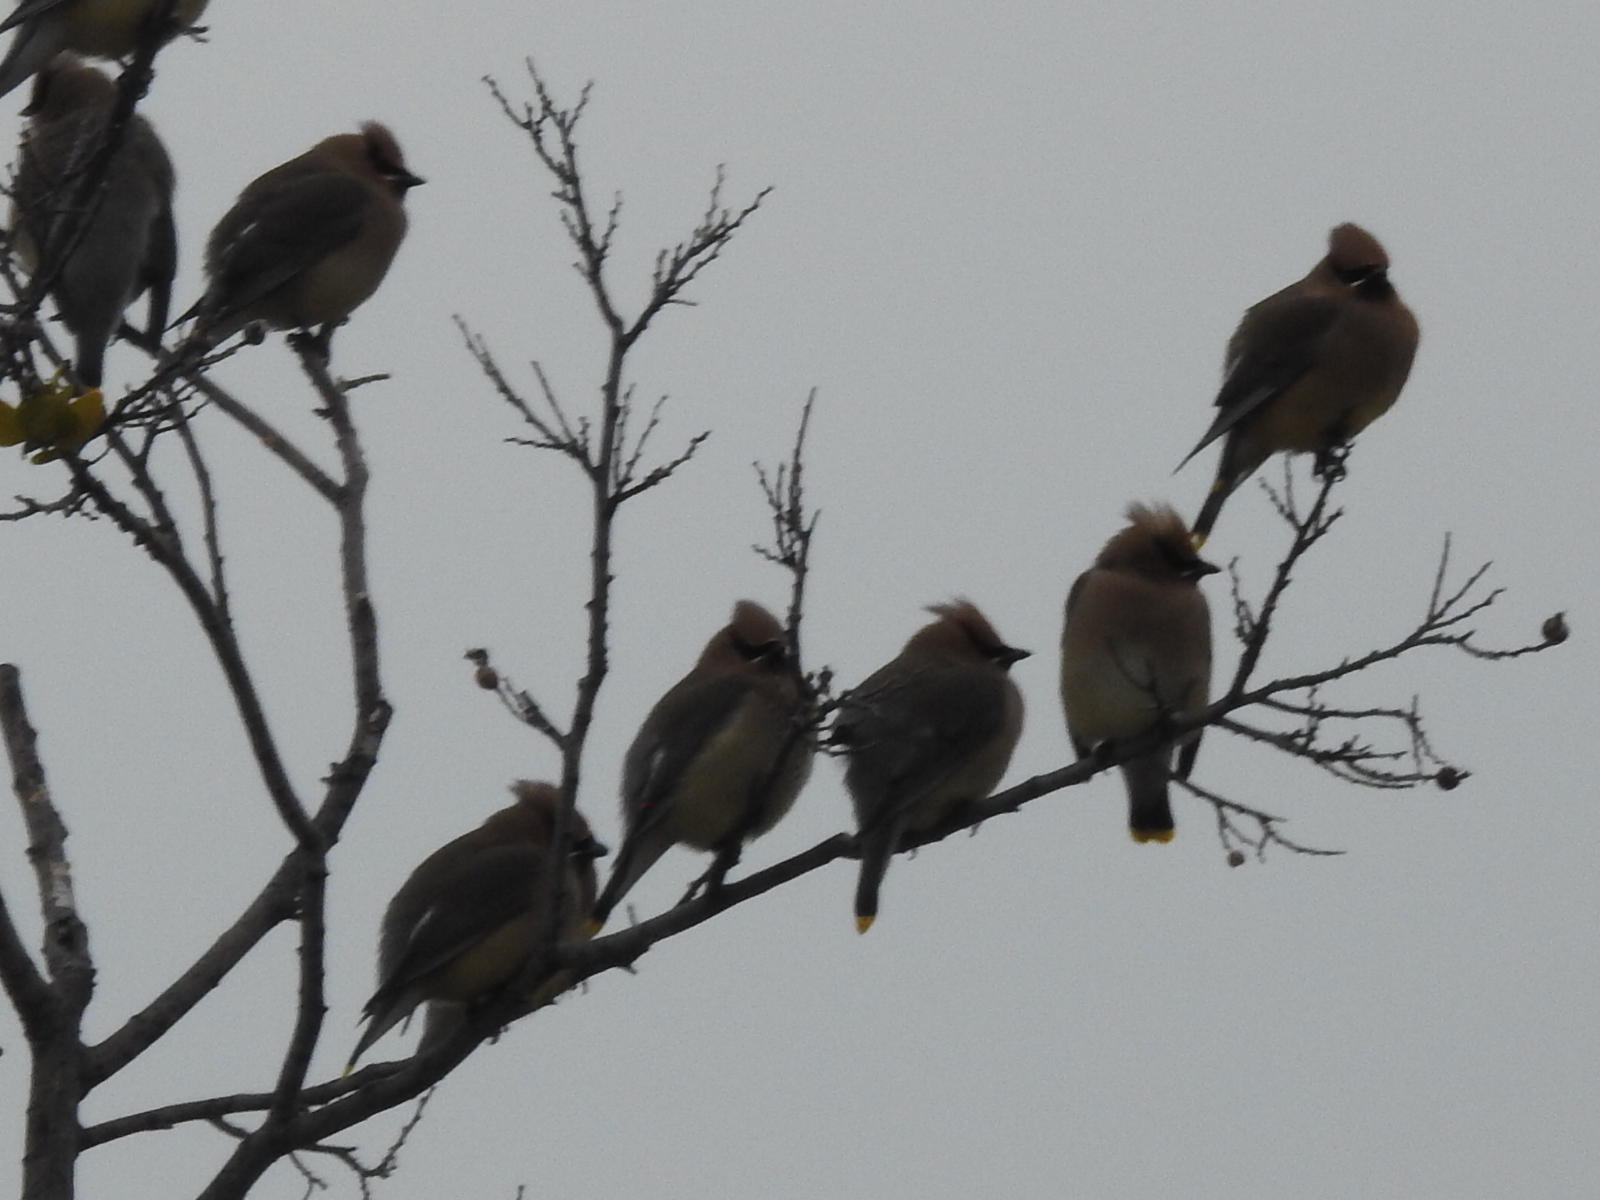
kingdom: Animalia
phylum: Chordata
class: Aves
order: Passeriformes
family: Bombycillidae
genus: Bombycilla
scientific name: Bombycilla cedrorum
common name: Cedar waxwing
